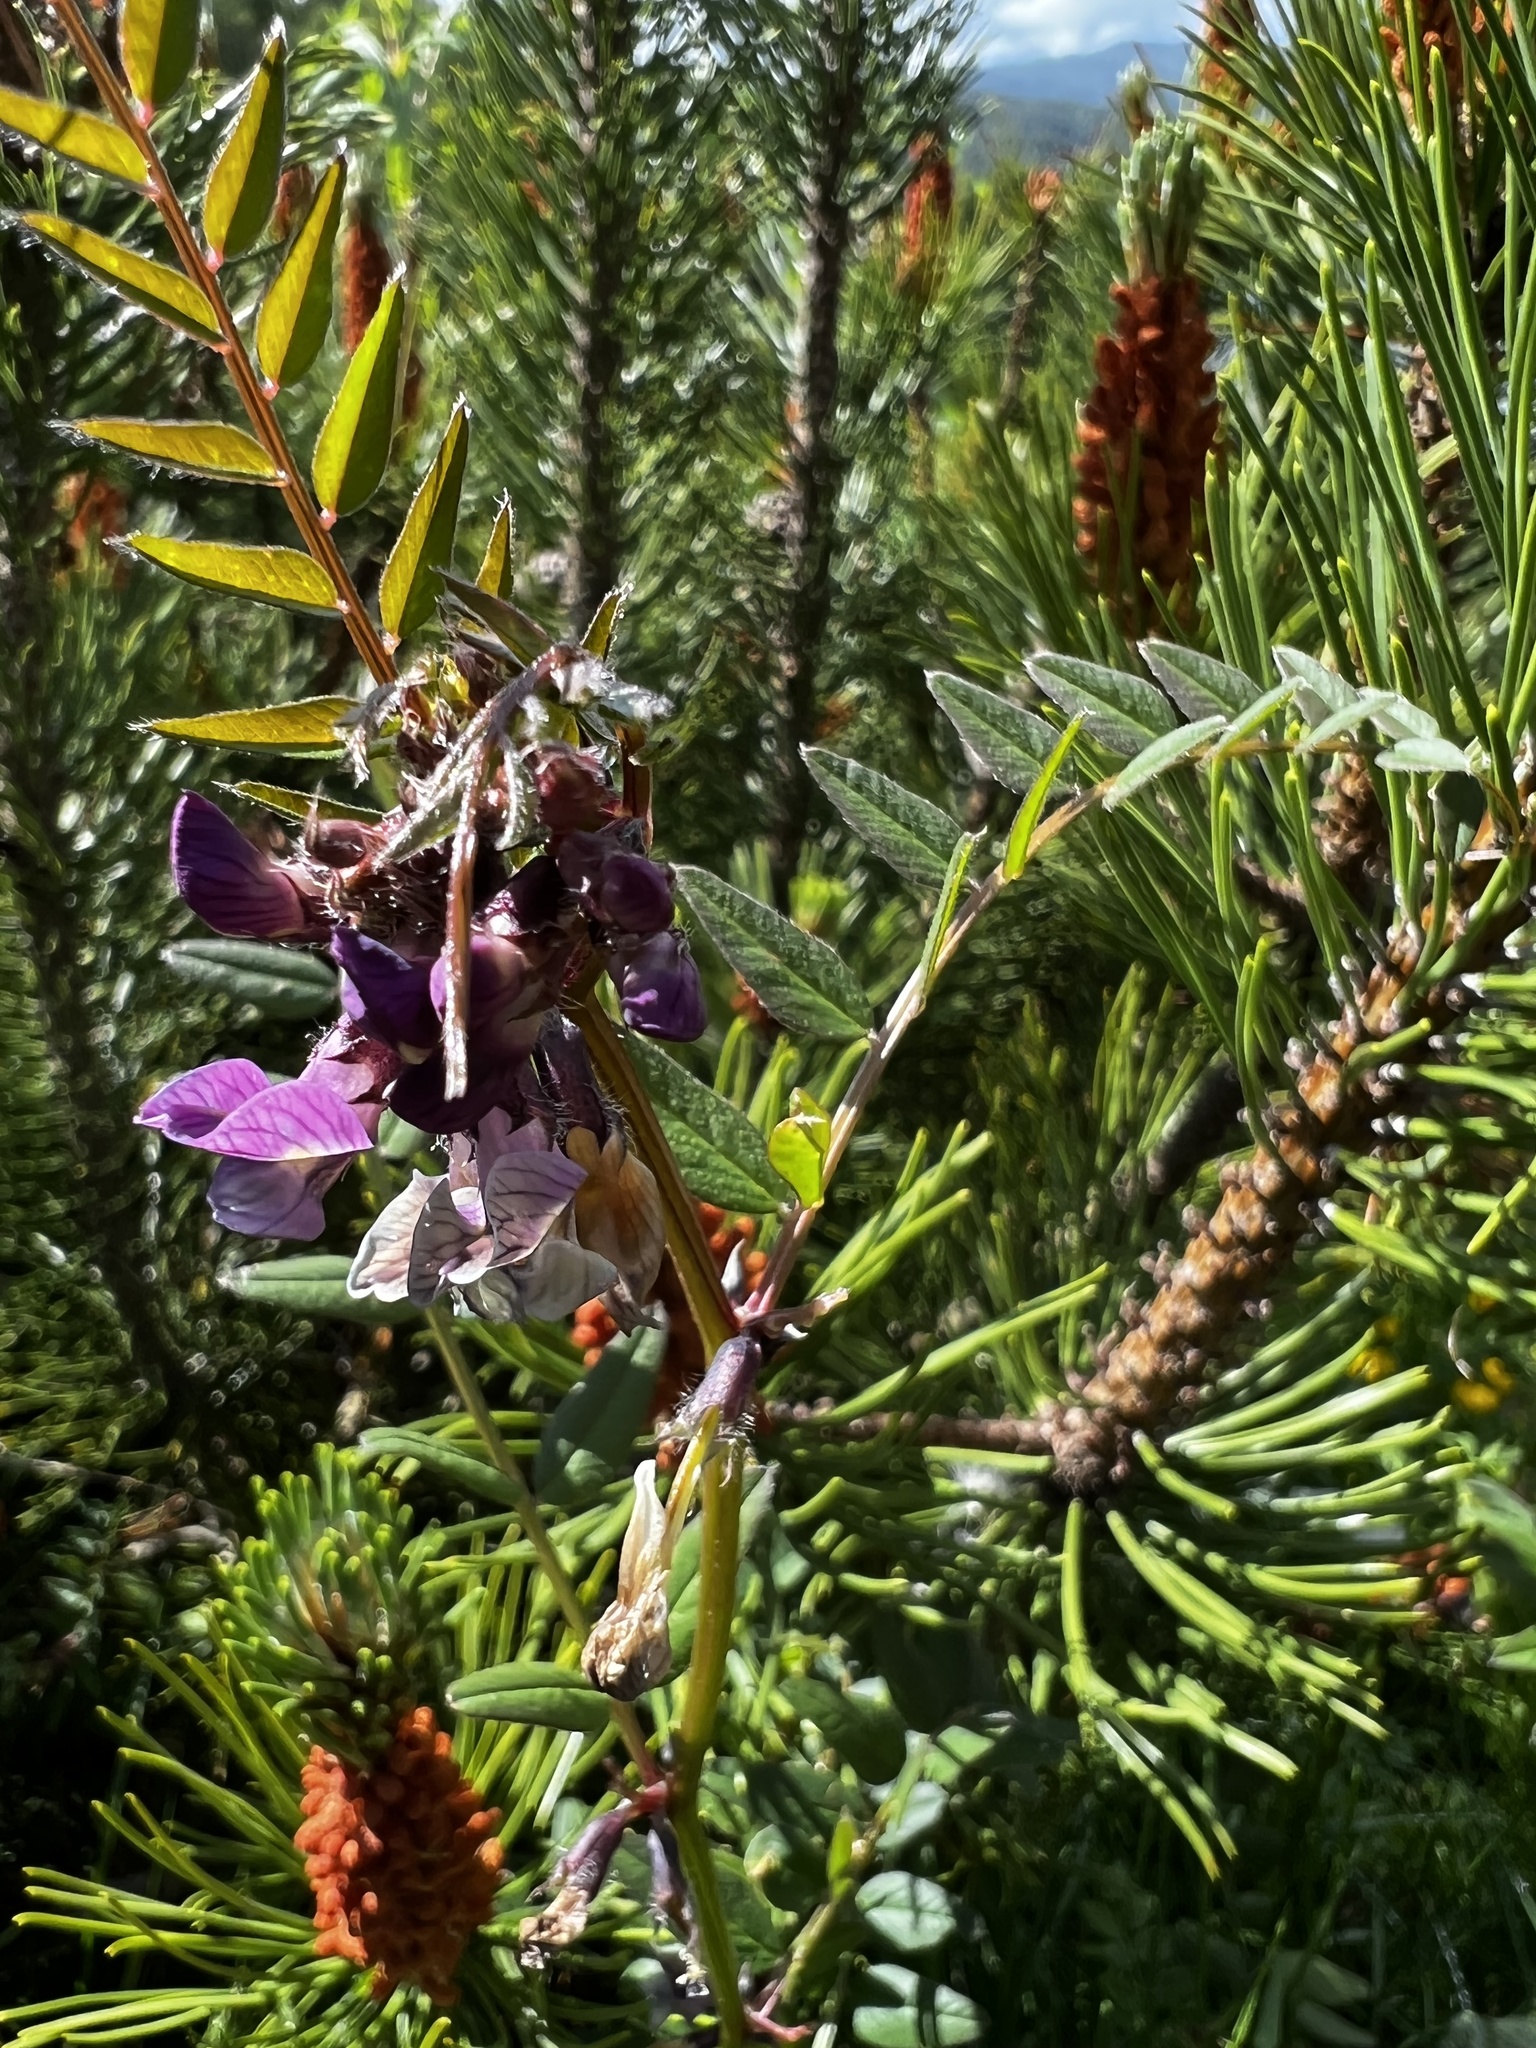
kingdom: Plantae
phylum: Tracheophyta
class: Magnoliopsida
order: Fabales
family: Fabaceae
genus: Vicia
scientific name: Vicia sepium
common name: Bush vetch
